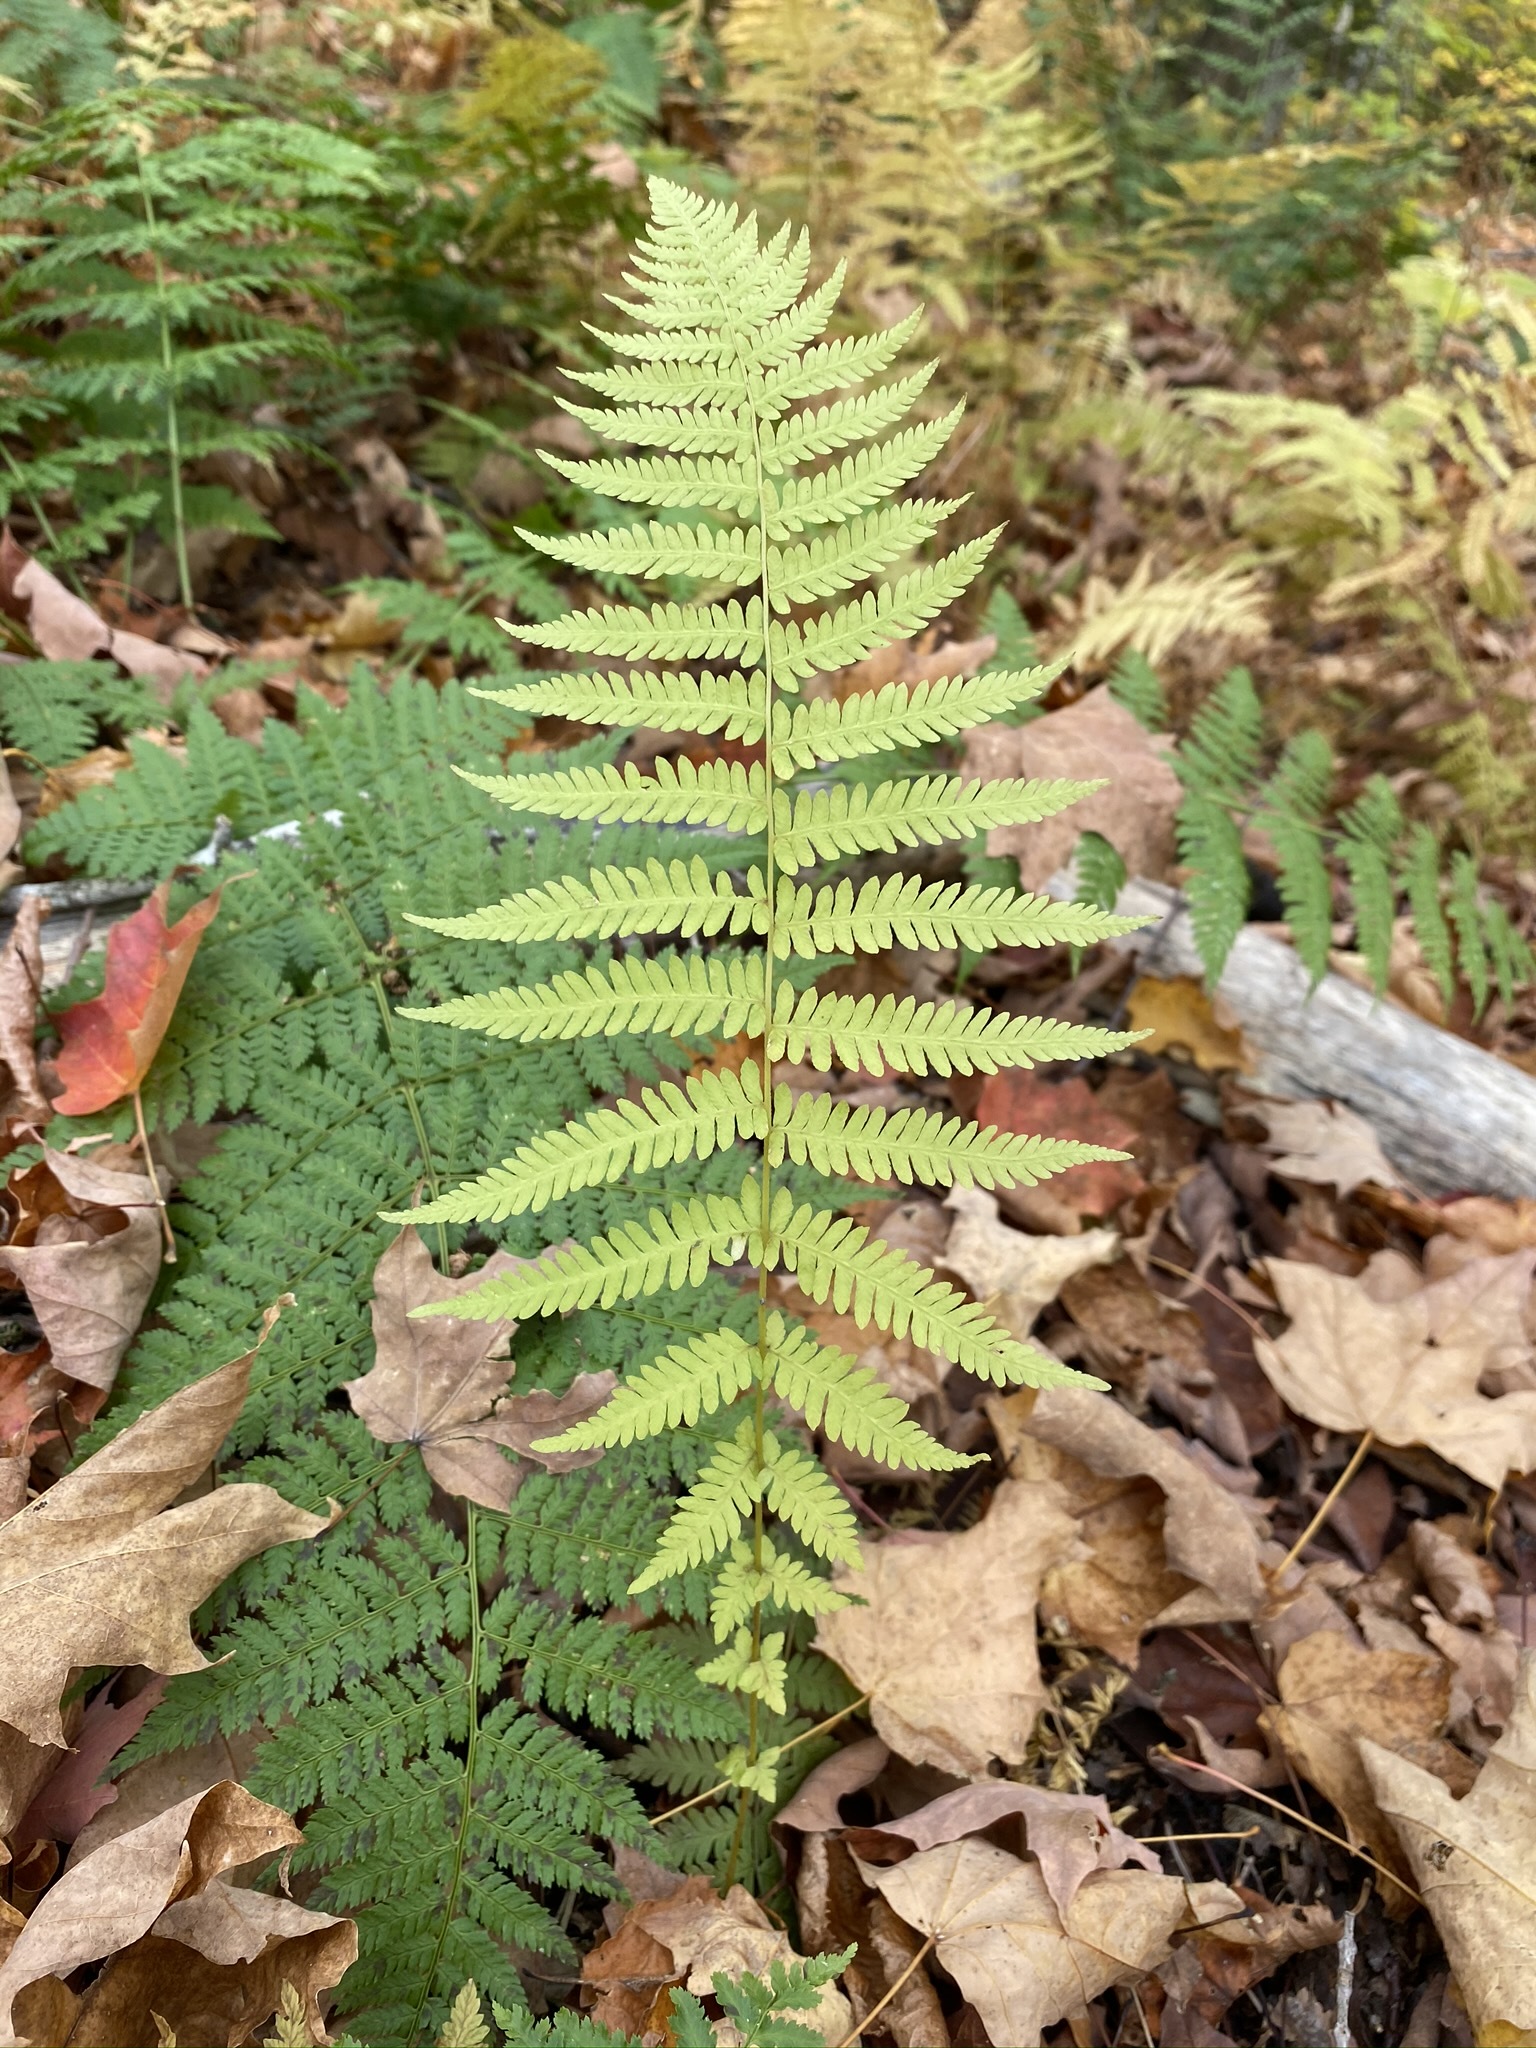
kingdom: Plantae
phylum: Tracheophyta
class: Polypodiopsida
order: Polypodiales
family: Thelypteridaceae
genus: Amauropelta
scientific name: Amauropelta noveboracensis
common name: New york fern
